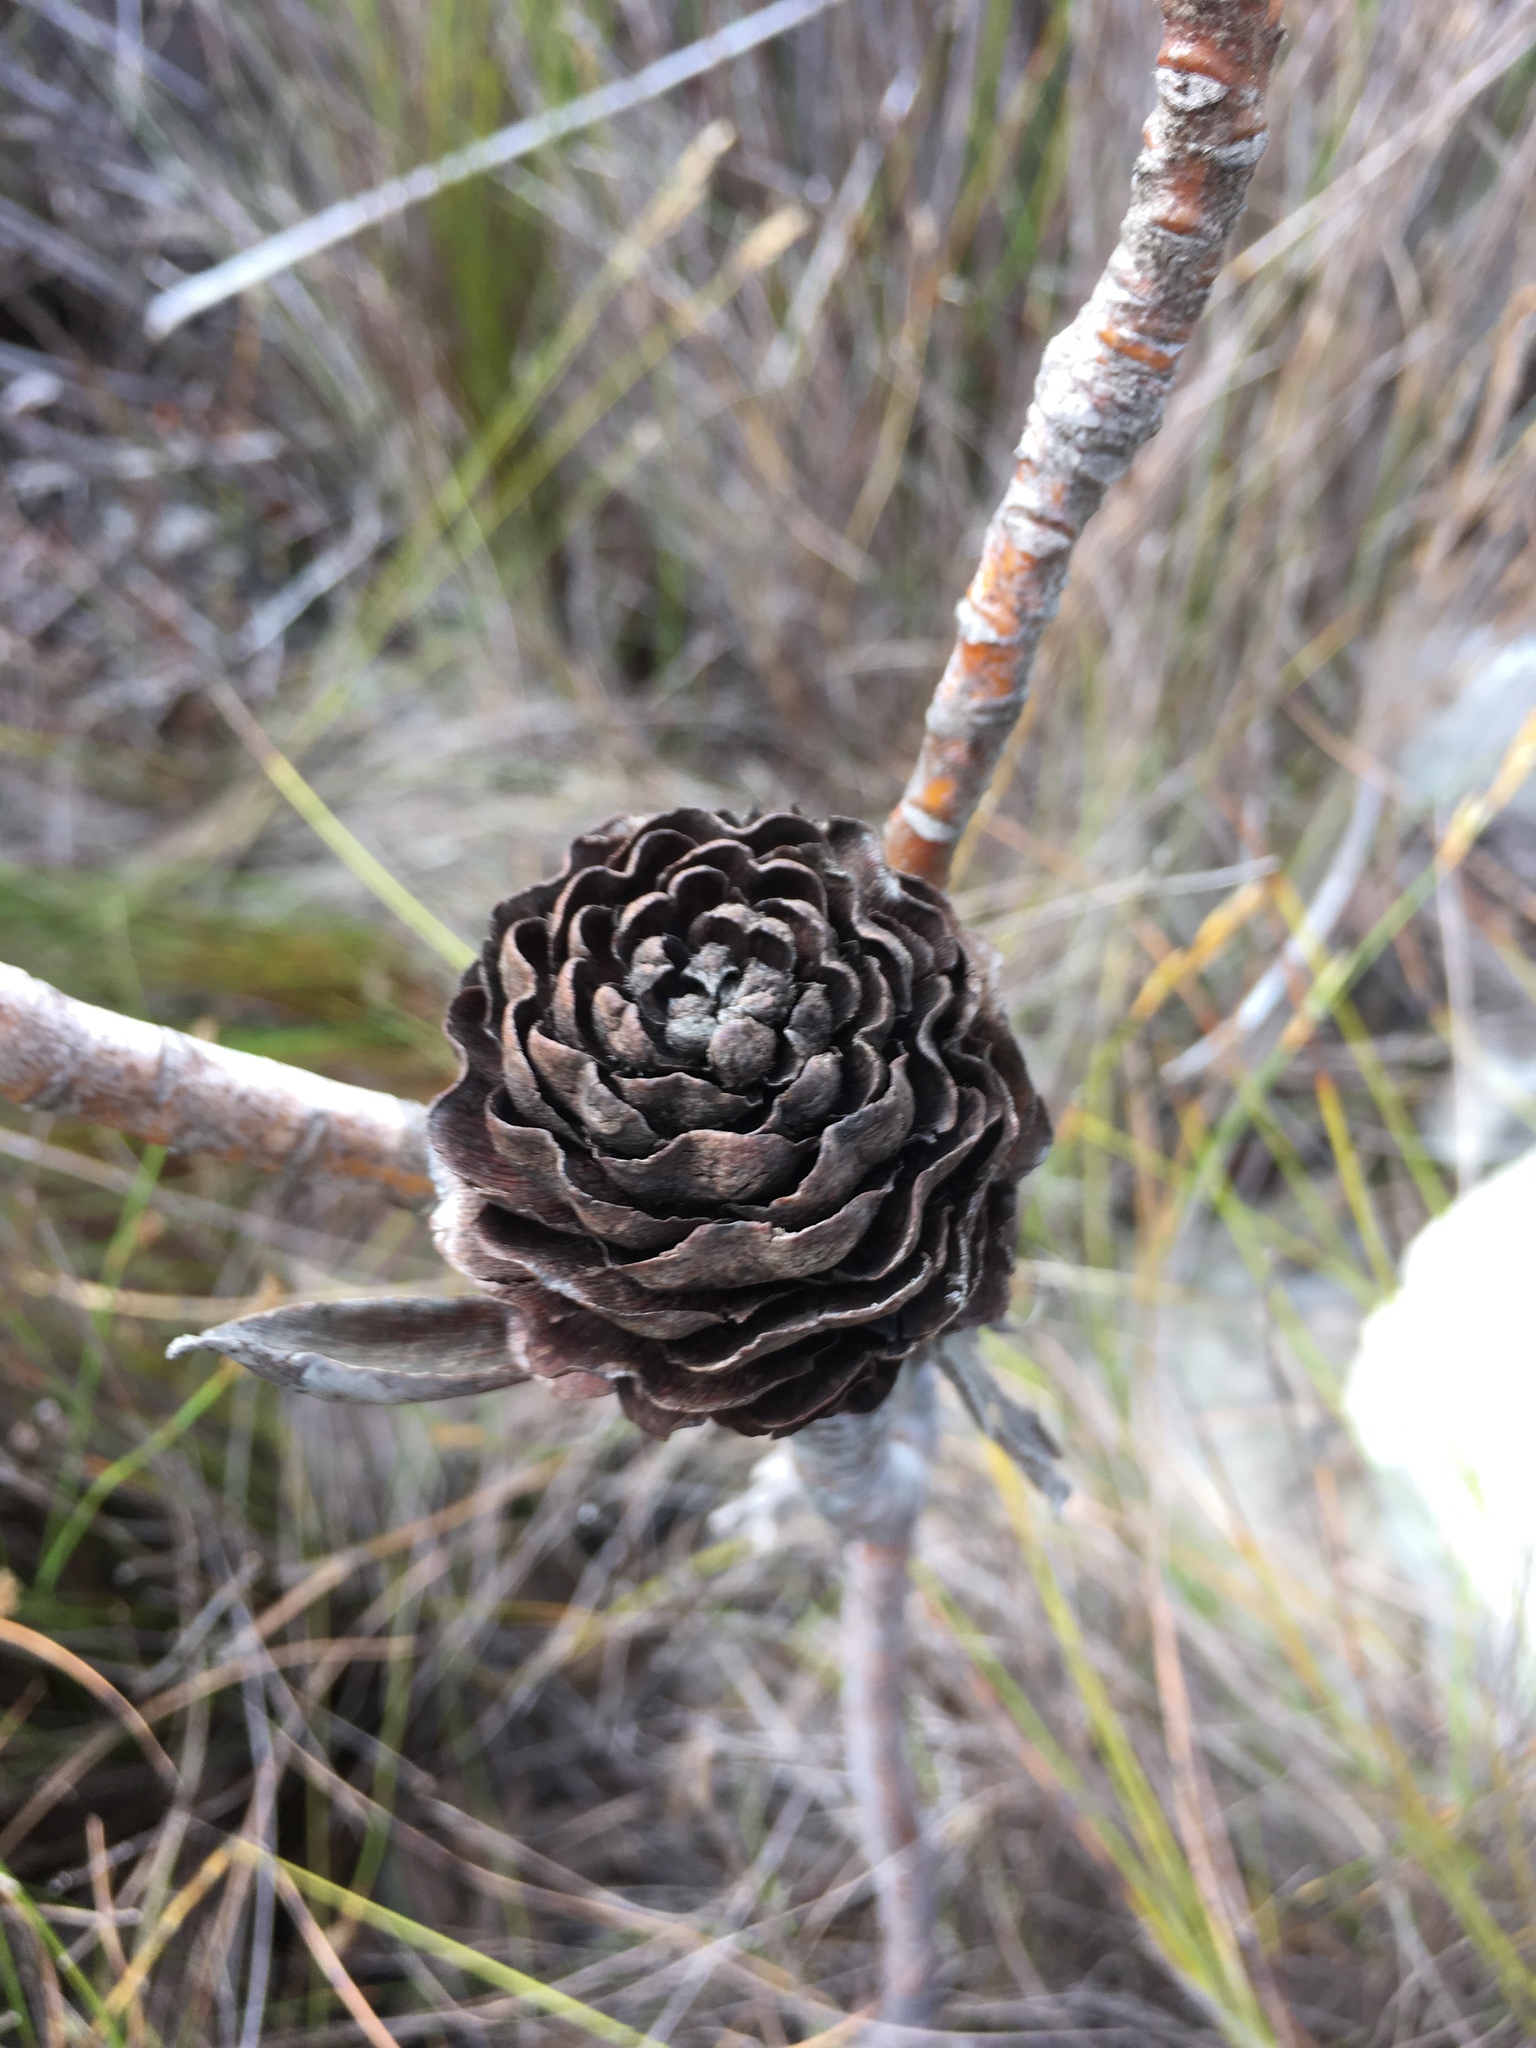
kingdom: Plantae
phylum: Tracheophyta
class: Magnoliopsida
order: Proteales
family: Proteaceae
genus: Leucadendron
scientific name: Leucadendron laureolum
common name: Golden sunshinebush
